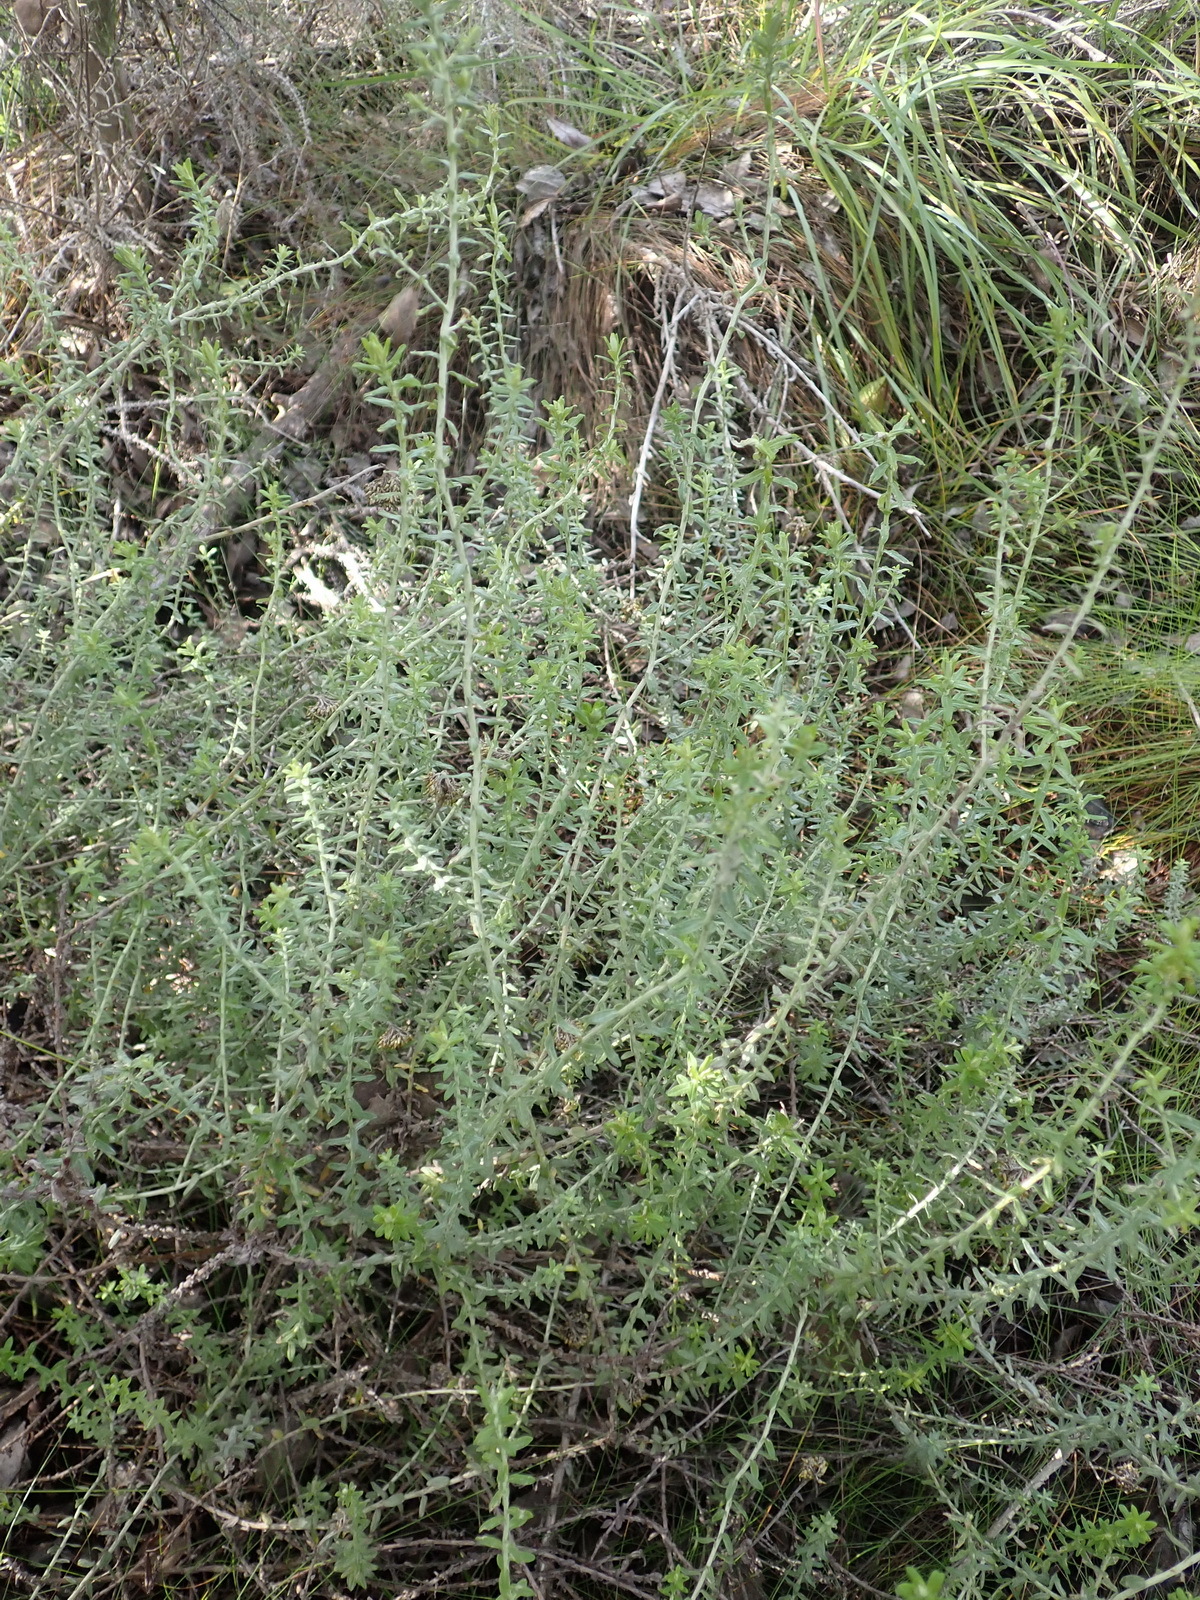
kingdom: Plantae
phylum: Tracheophyta
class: Magnoliopsida
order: Asterales
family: Asteraceae
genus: Helichrysum
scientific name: Helichrysum cymosum
